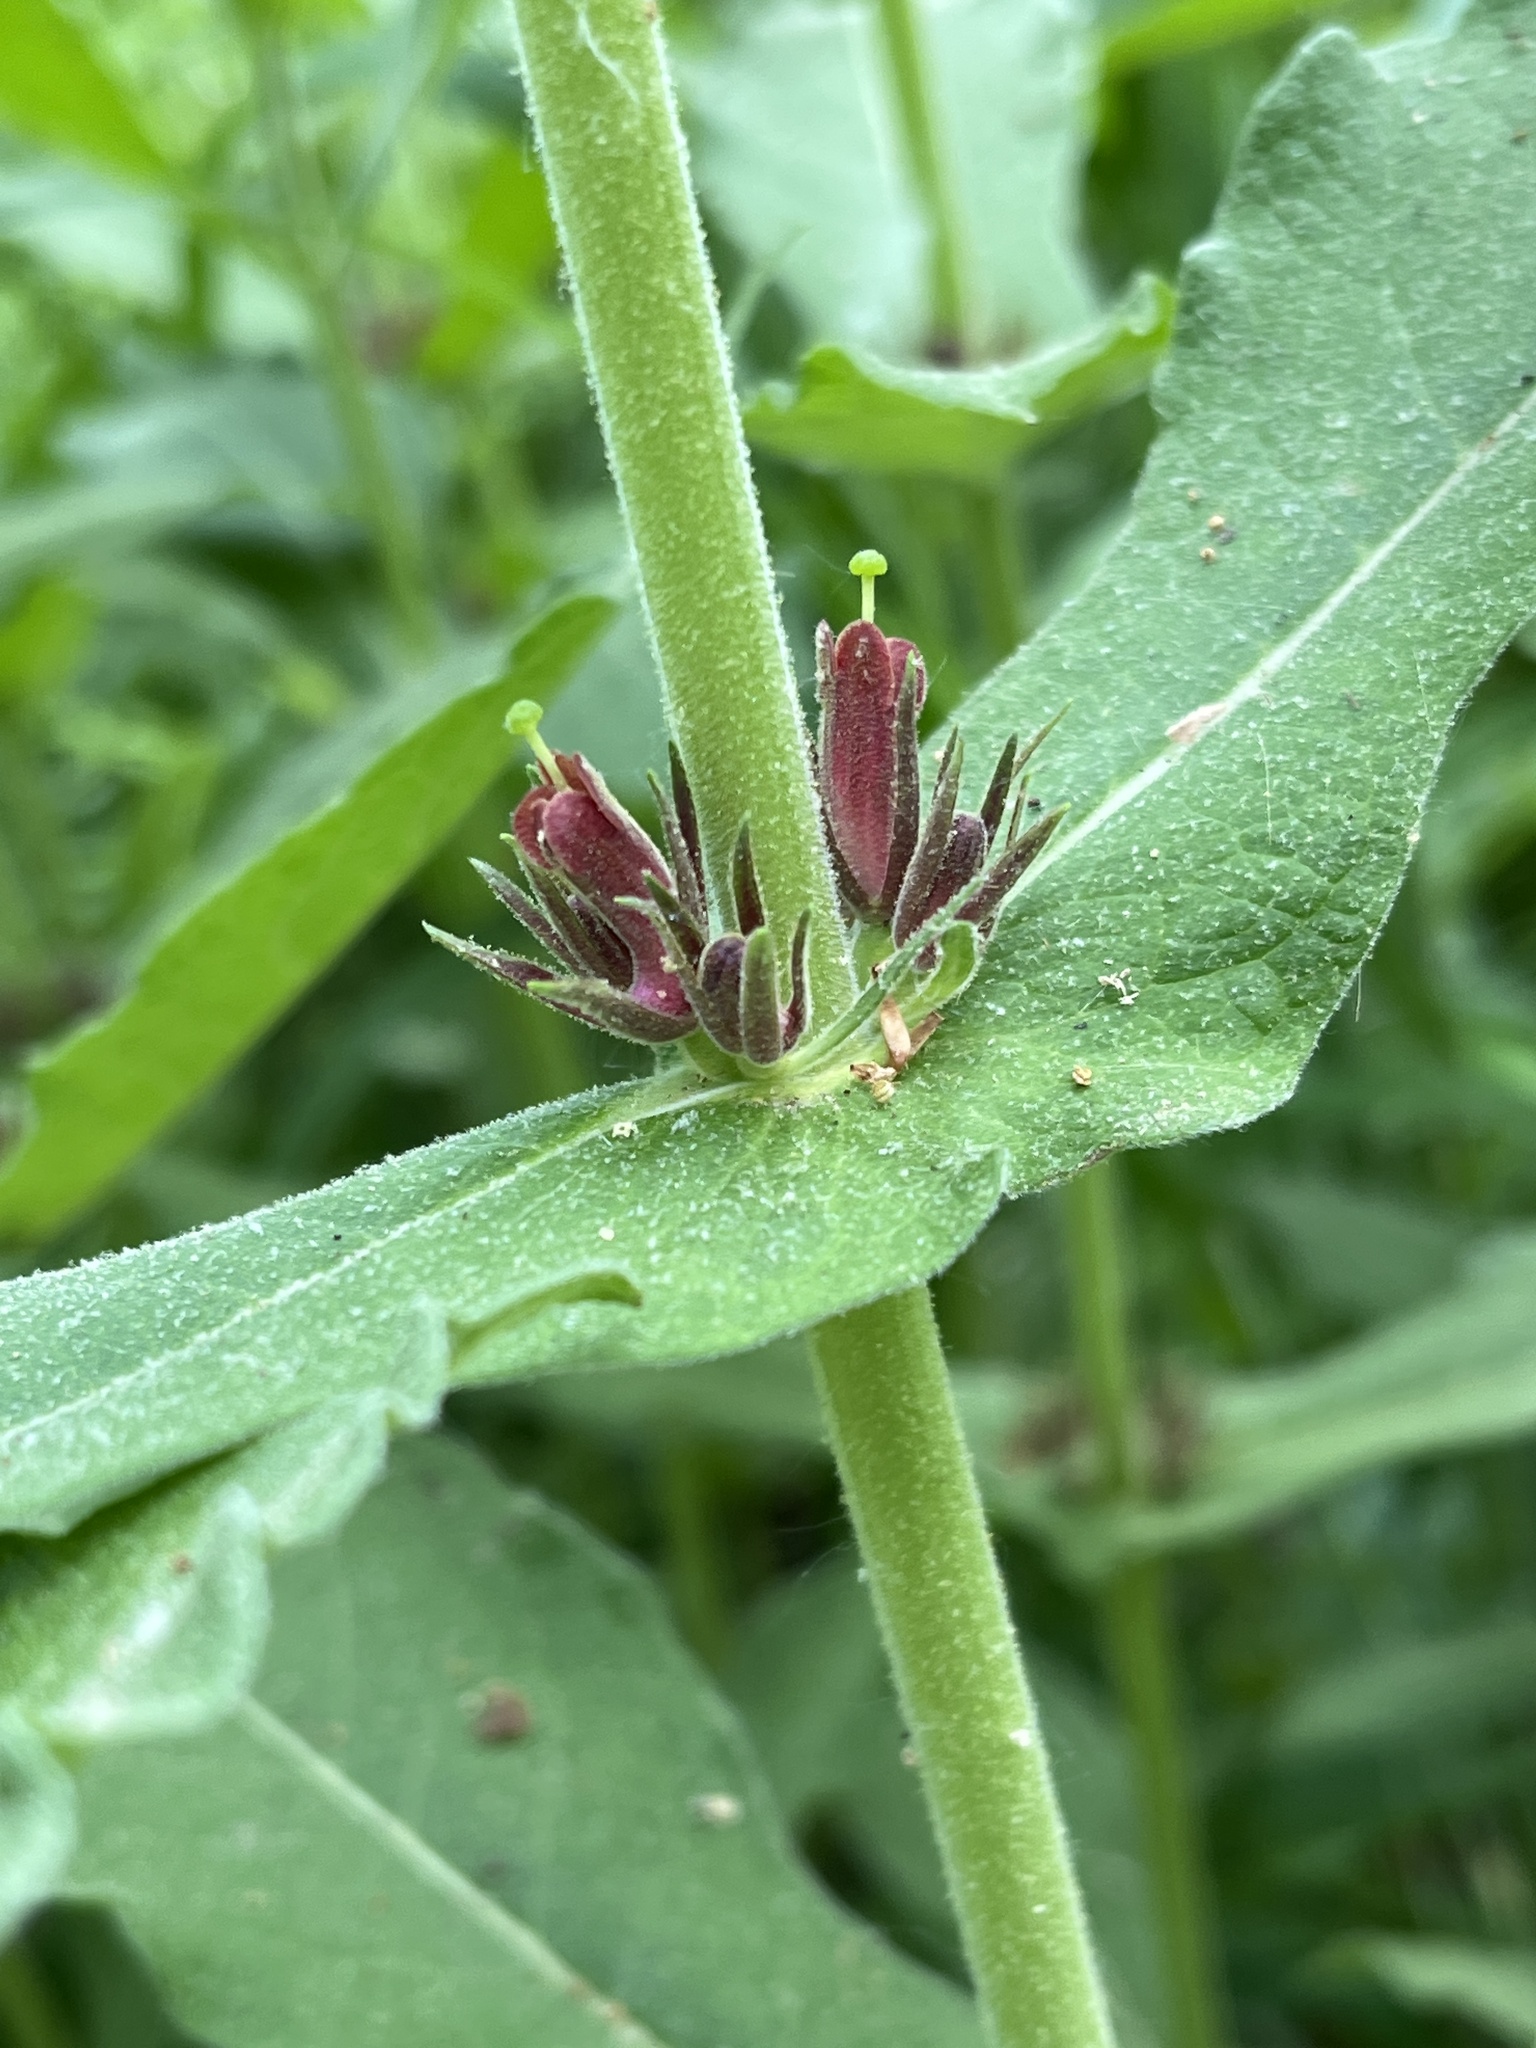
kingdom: Plantae
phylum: Tracheophyta
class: Magnoliopsida
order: Dipsacales
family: Caprifoliaceae
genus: Triosteum
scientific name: Triosteum perfoliatum
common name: Common horse-gentian
